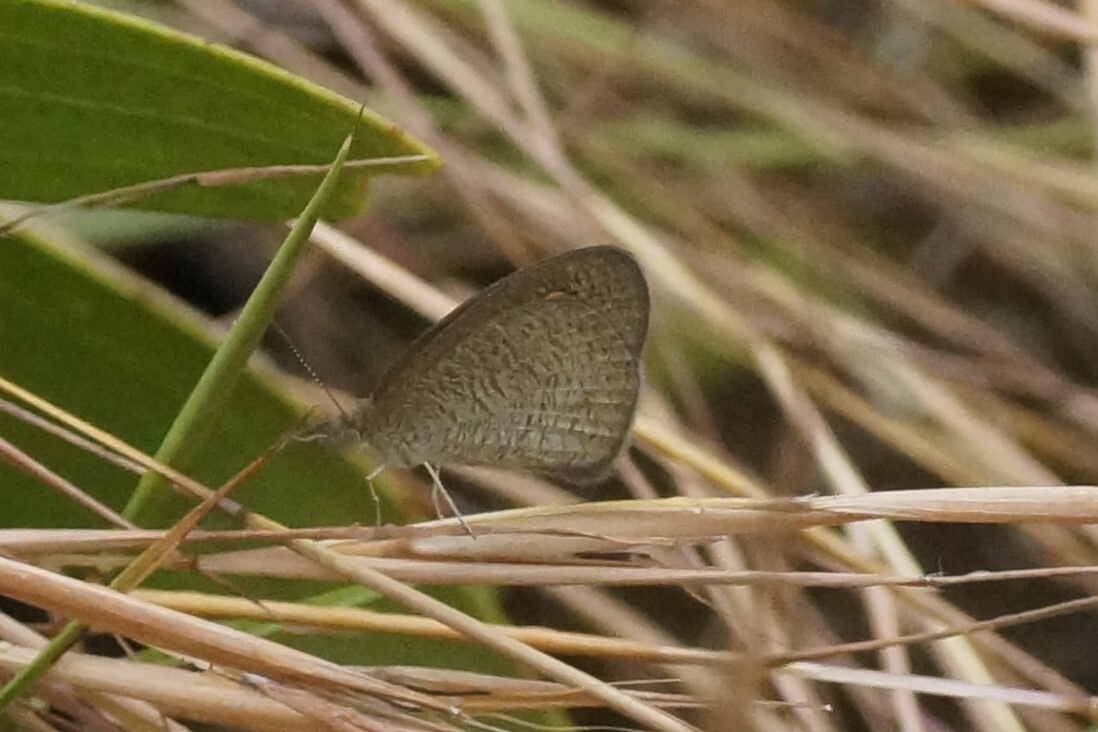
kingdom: Animalia
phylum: Arthropoda
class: Insecta
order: Lepidoptera
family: Nymphalidae
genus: Ypthima
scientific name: Ypthima arctous
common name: Dusky knight
